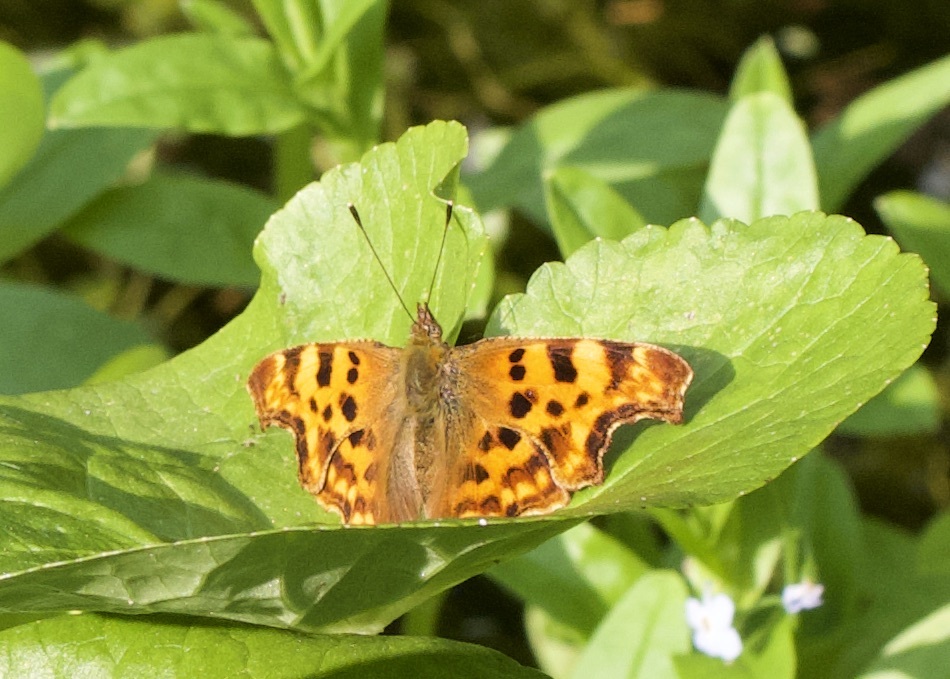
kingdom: Animalia
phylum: Arthropoda
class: Insecta
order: Lepidoptera
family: Nymphalidae
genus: Polygonia
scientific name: Polygonia c-album
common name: Comma
